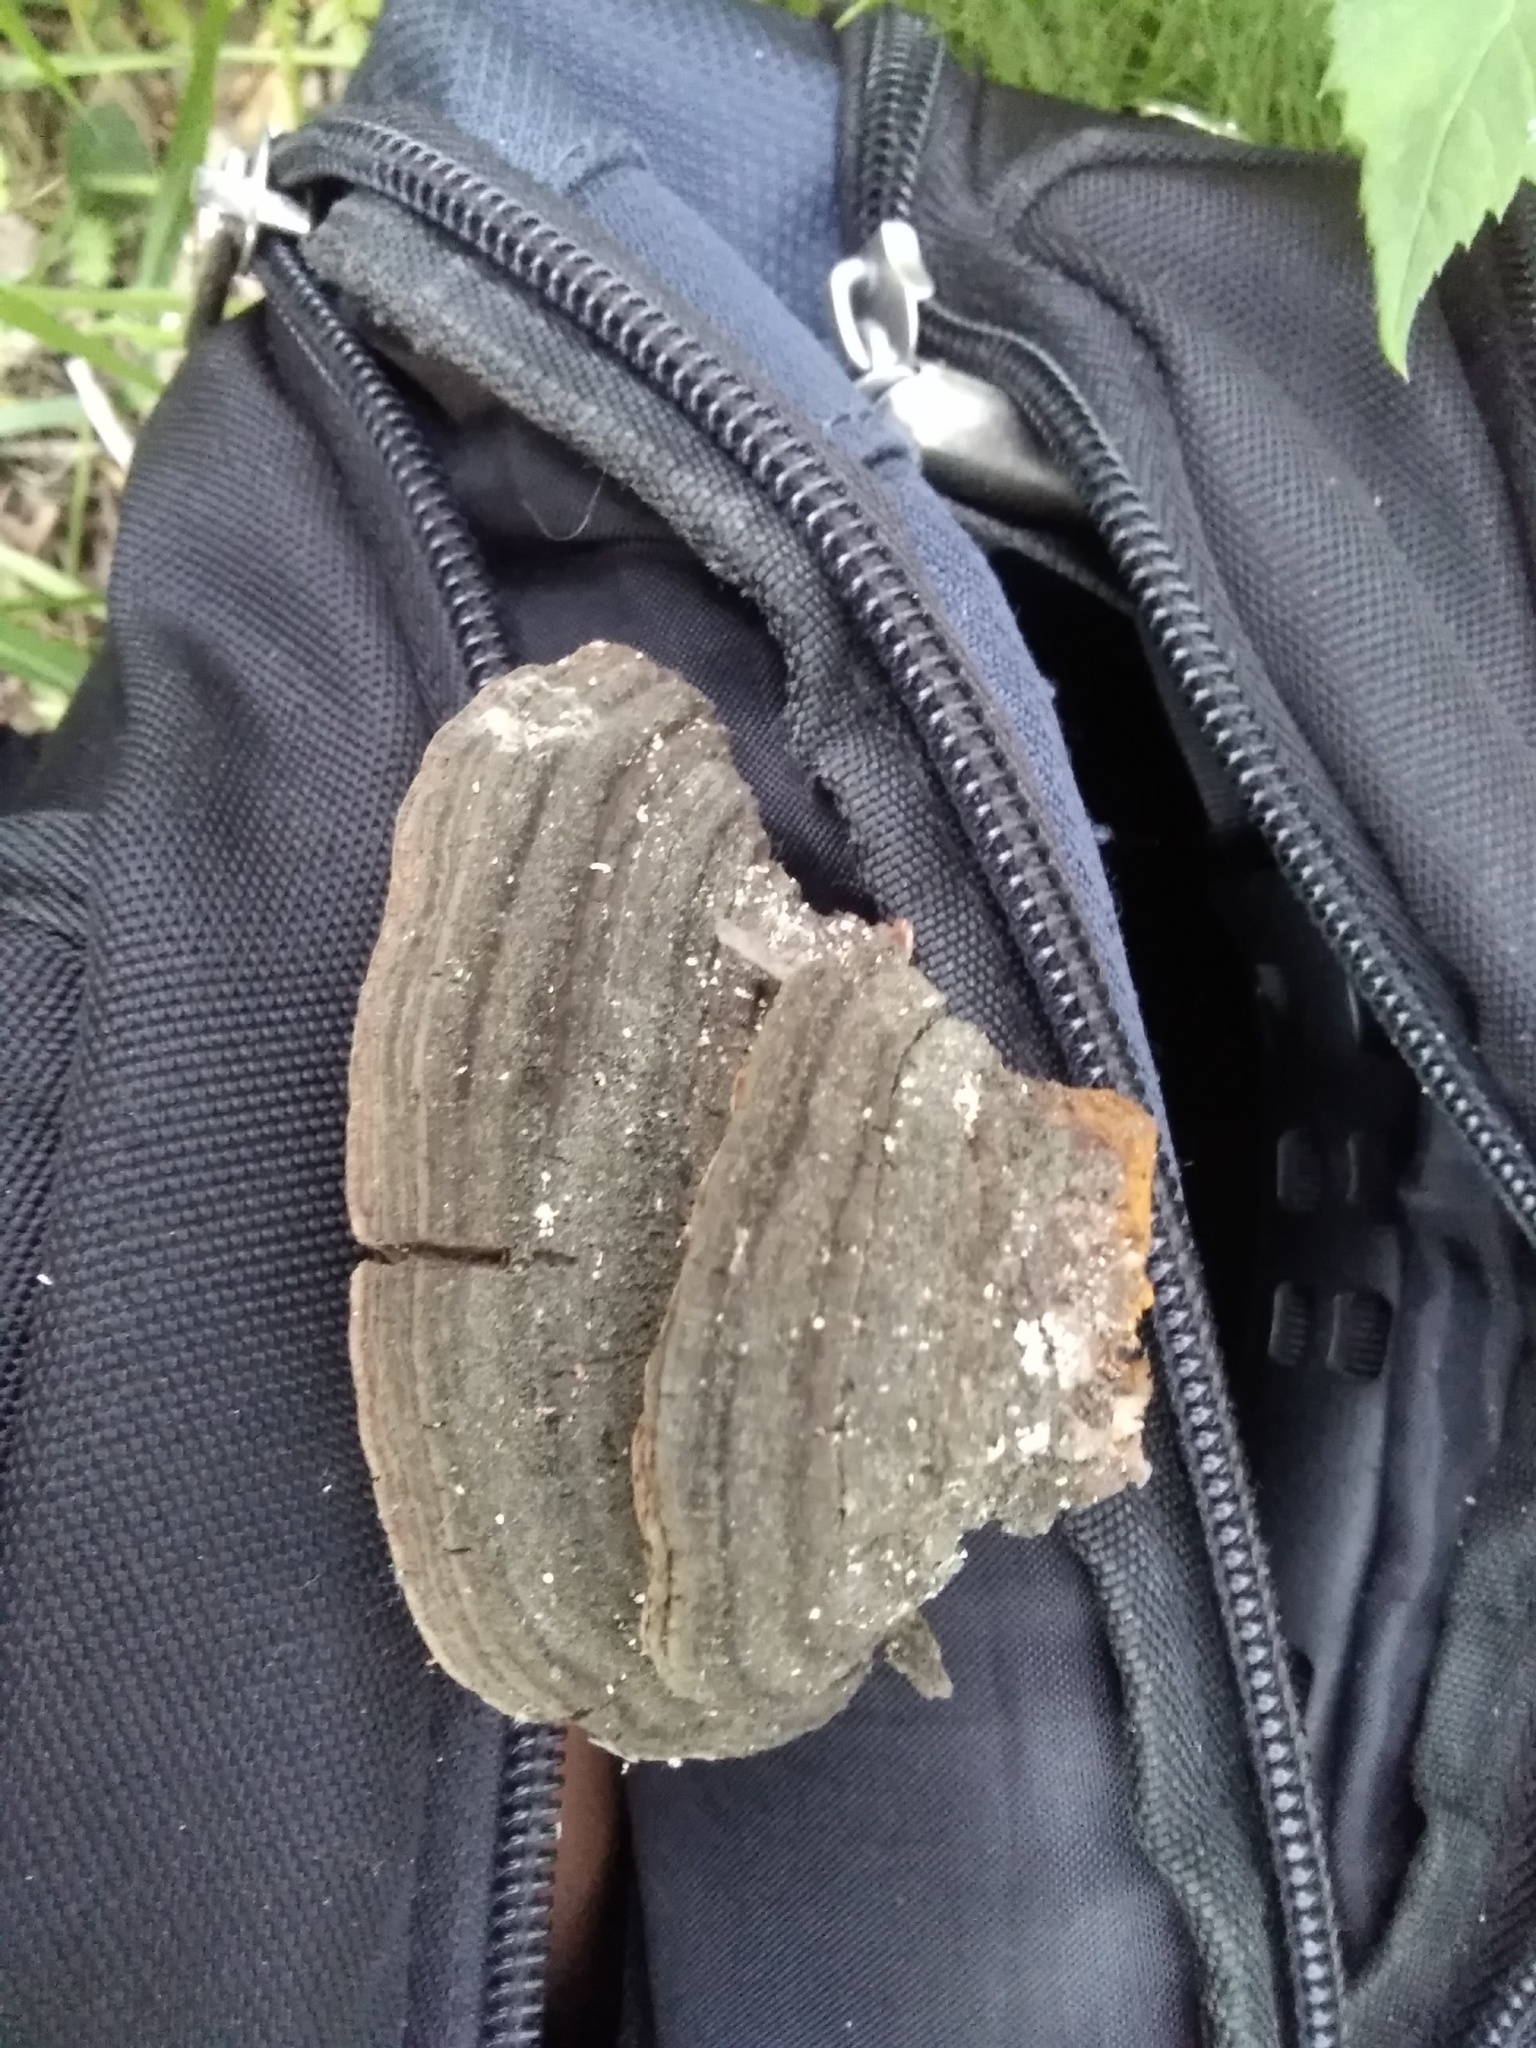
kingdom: Fungi
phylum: Basidiomycota
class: Agaricomycetes
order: Hymenochaetales
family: Hymenochaetaceae
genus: Porodaedalea
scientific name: Porodaedalea pini
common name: Pine bracket
